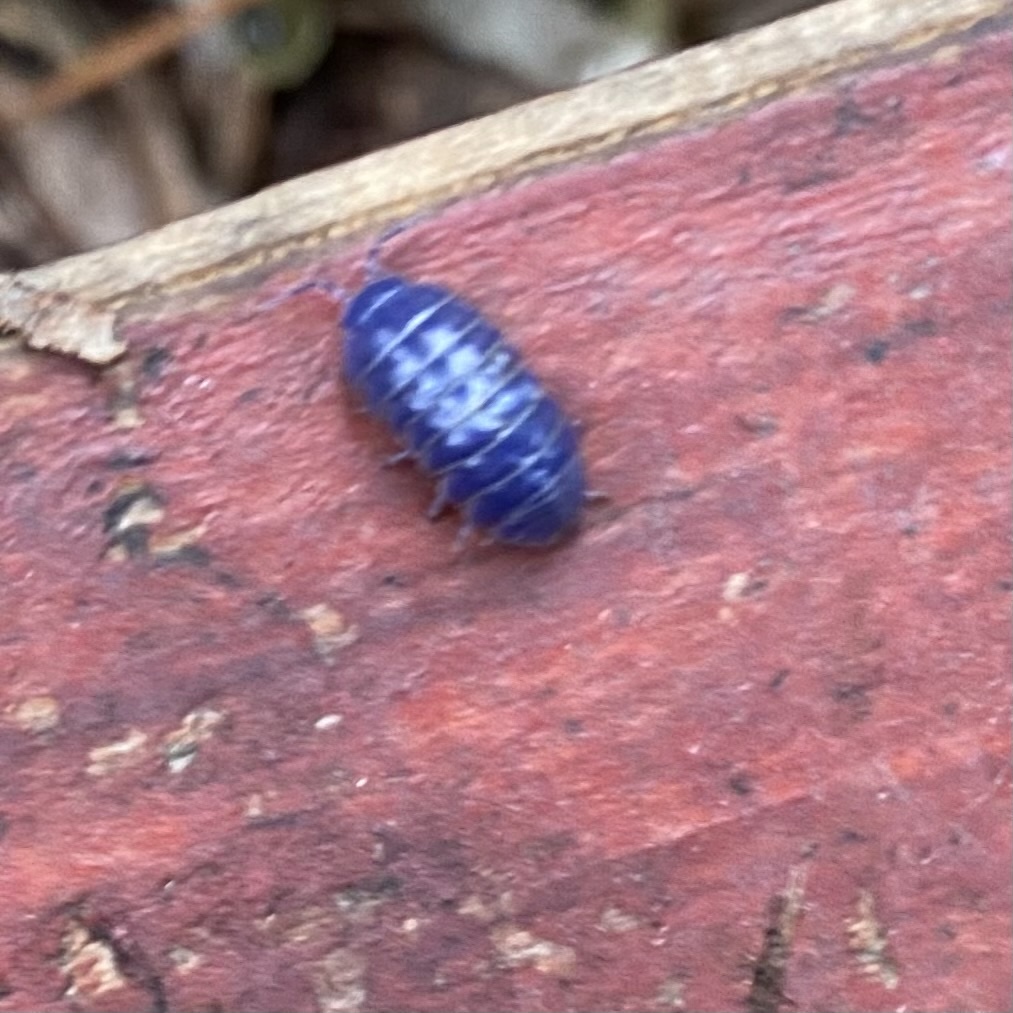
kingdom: Viruses
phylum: Nucleocytoviricota
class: Megaviricetes
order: Pimascovirales
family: Iridoviridae
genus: Iridovirus
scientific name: Iridovirus Invertebrate iridescent virus 31
